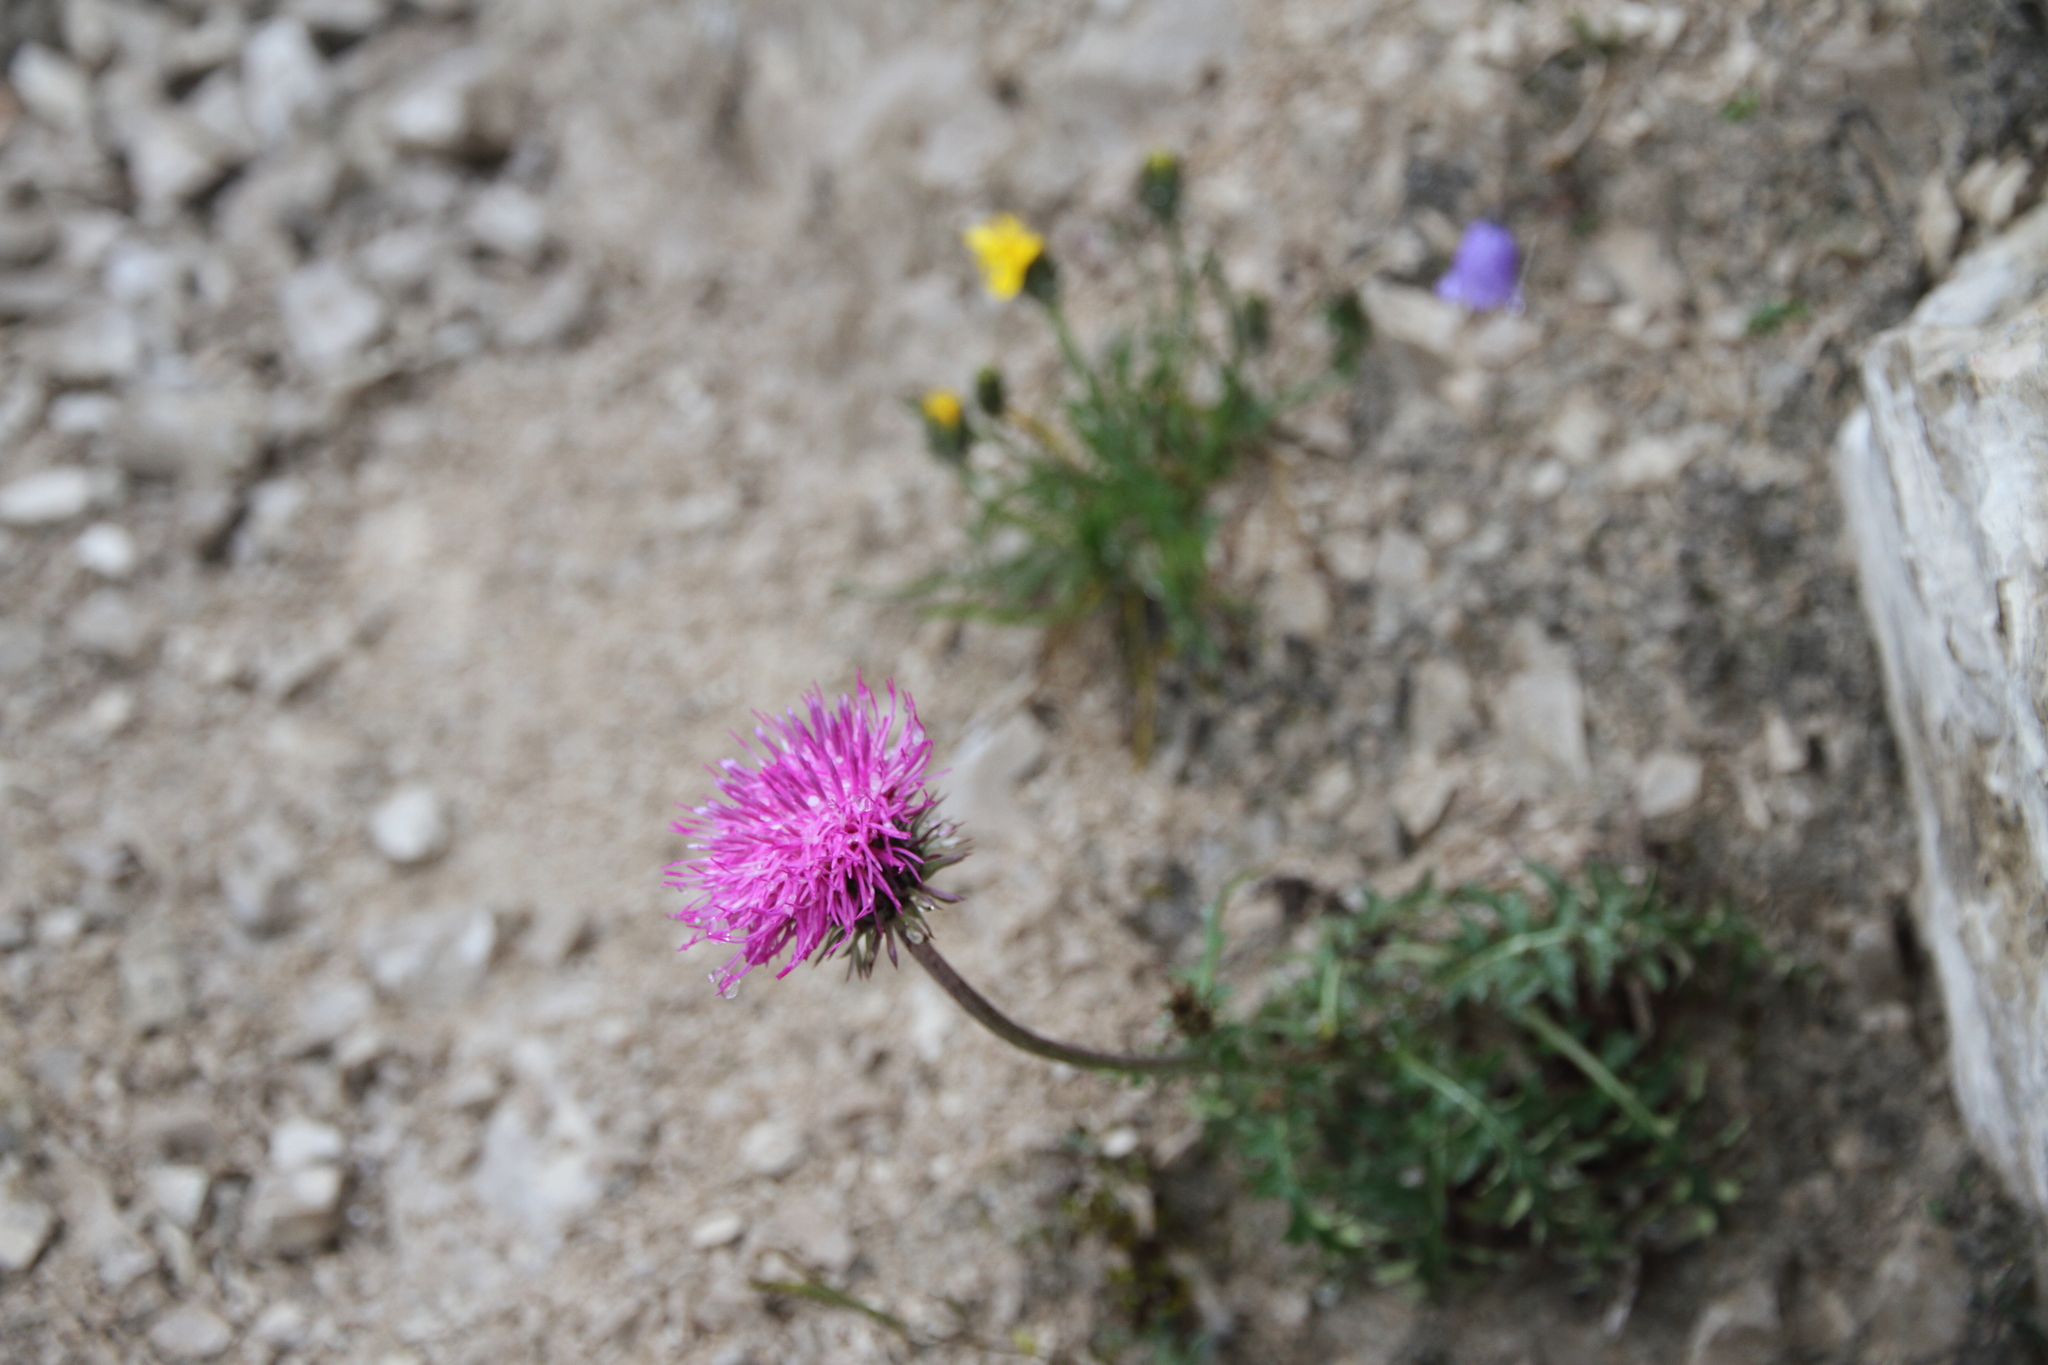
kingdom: Plantae
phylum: Tracheophyta
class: Magnoliopsida
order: Asterales
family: Asteraceae
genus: Carduus
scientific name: Carduus defloratus
